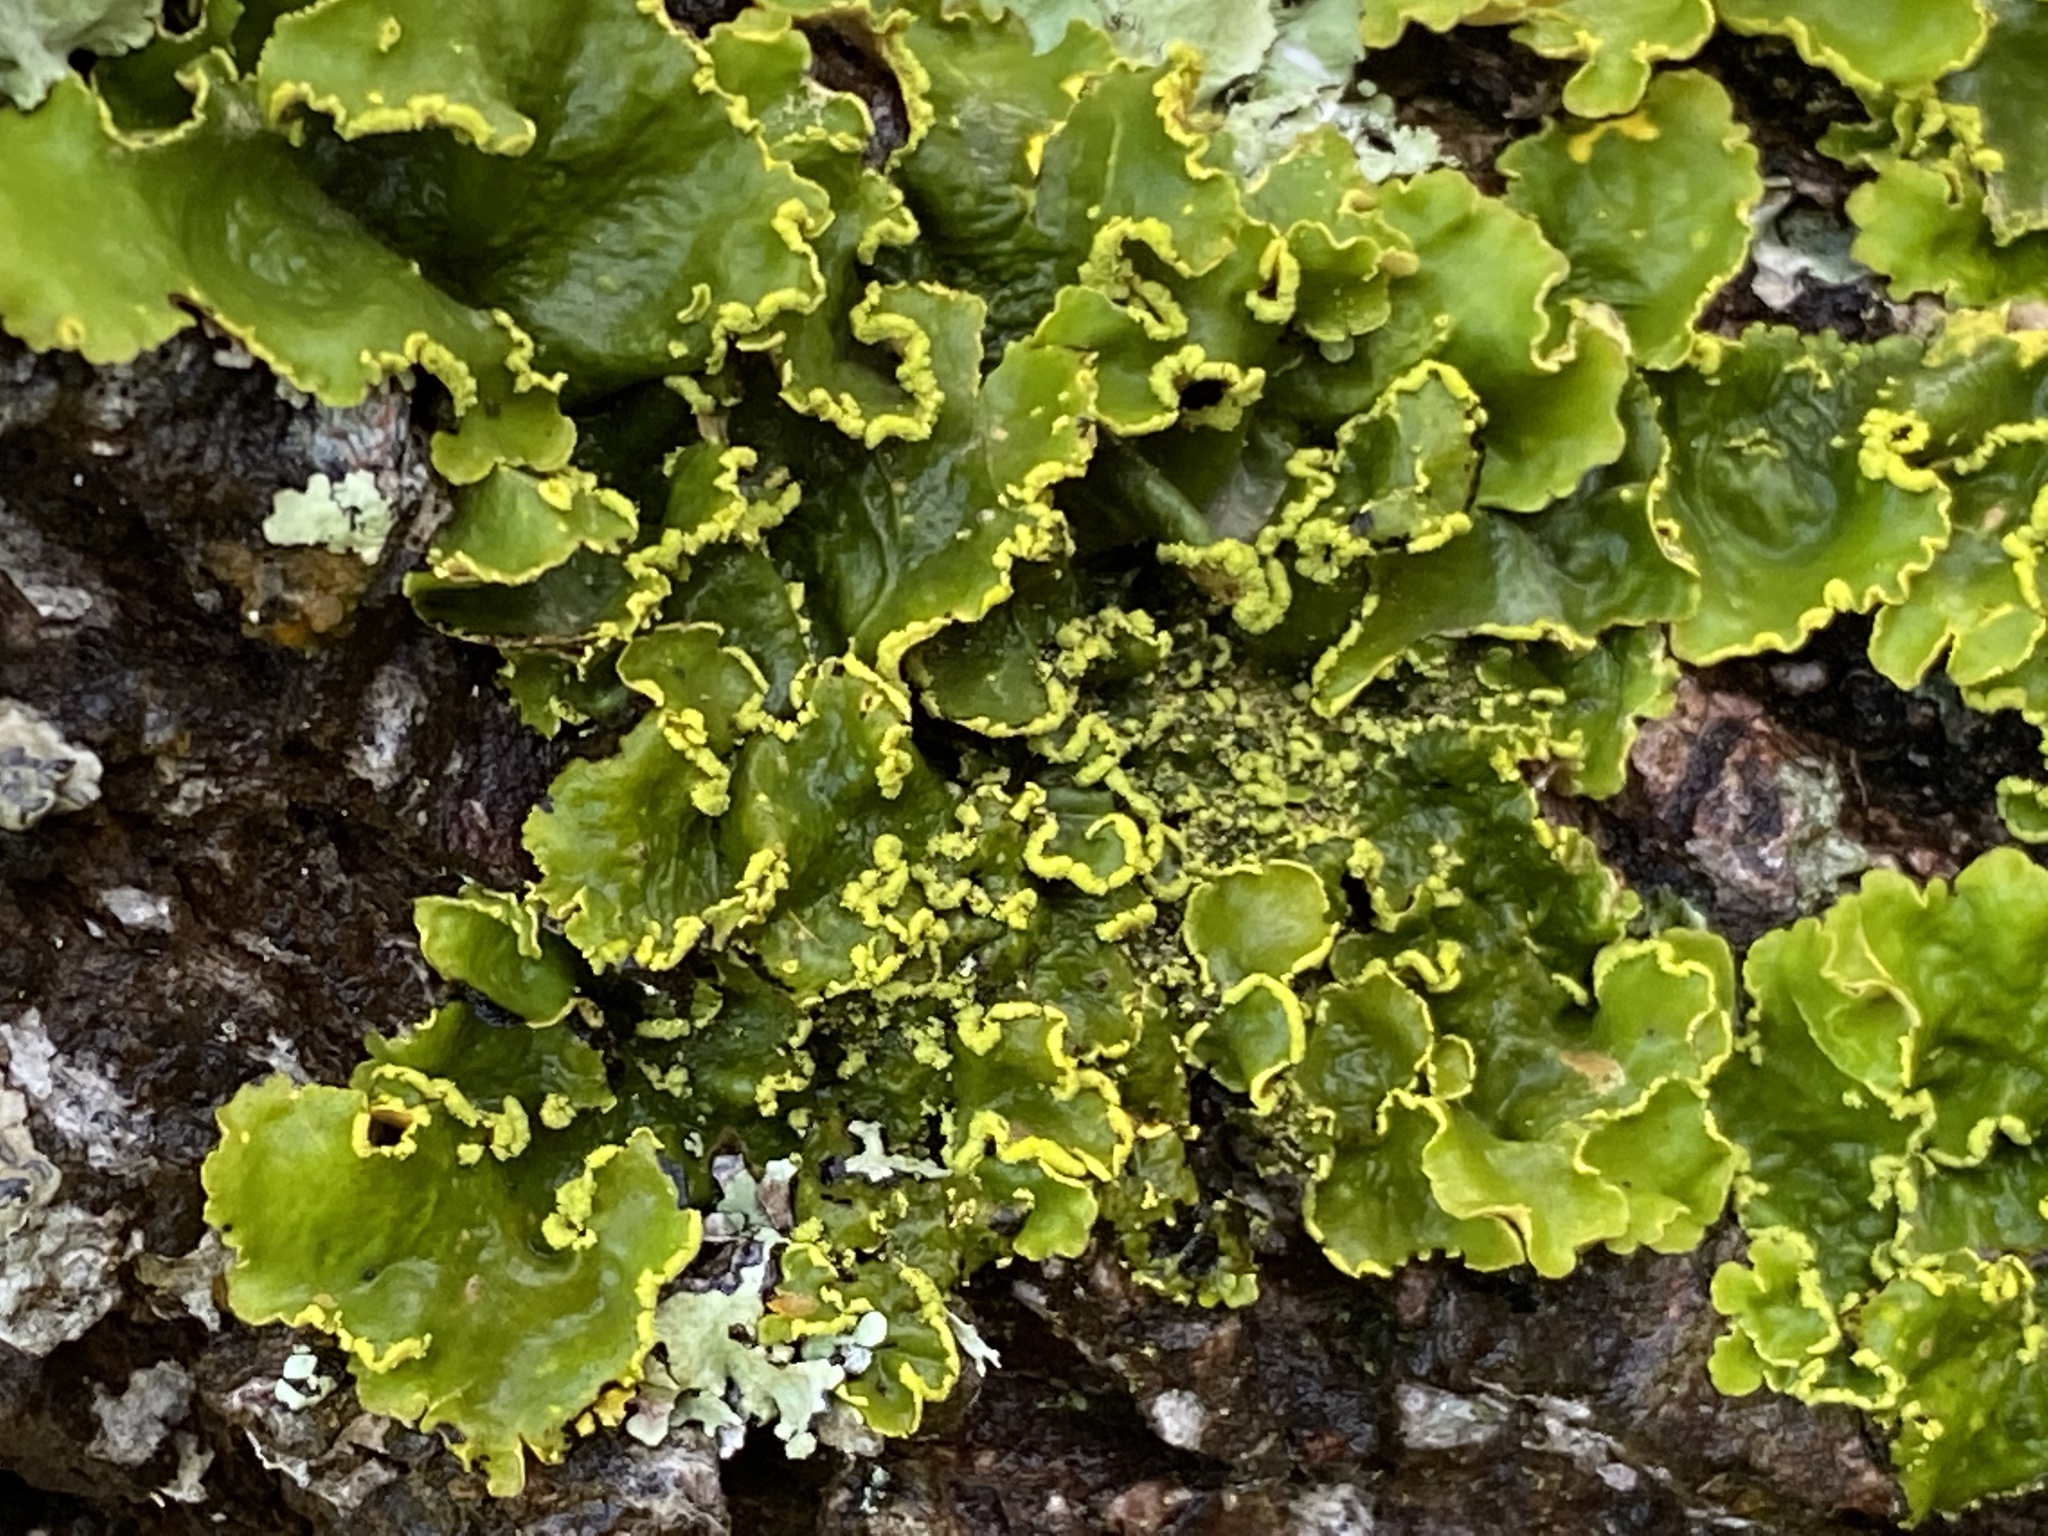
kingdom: Fungi
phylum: Ascomycota
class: Lecanoromycetes
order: Peltigerales
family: Lobariaceae
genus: Pseudocyphellaria
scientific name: Pseudocyphellaria aurata
